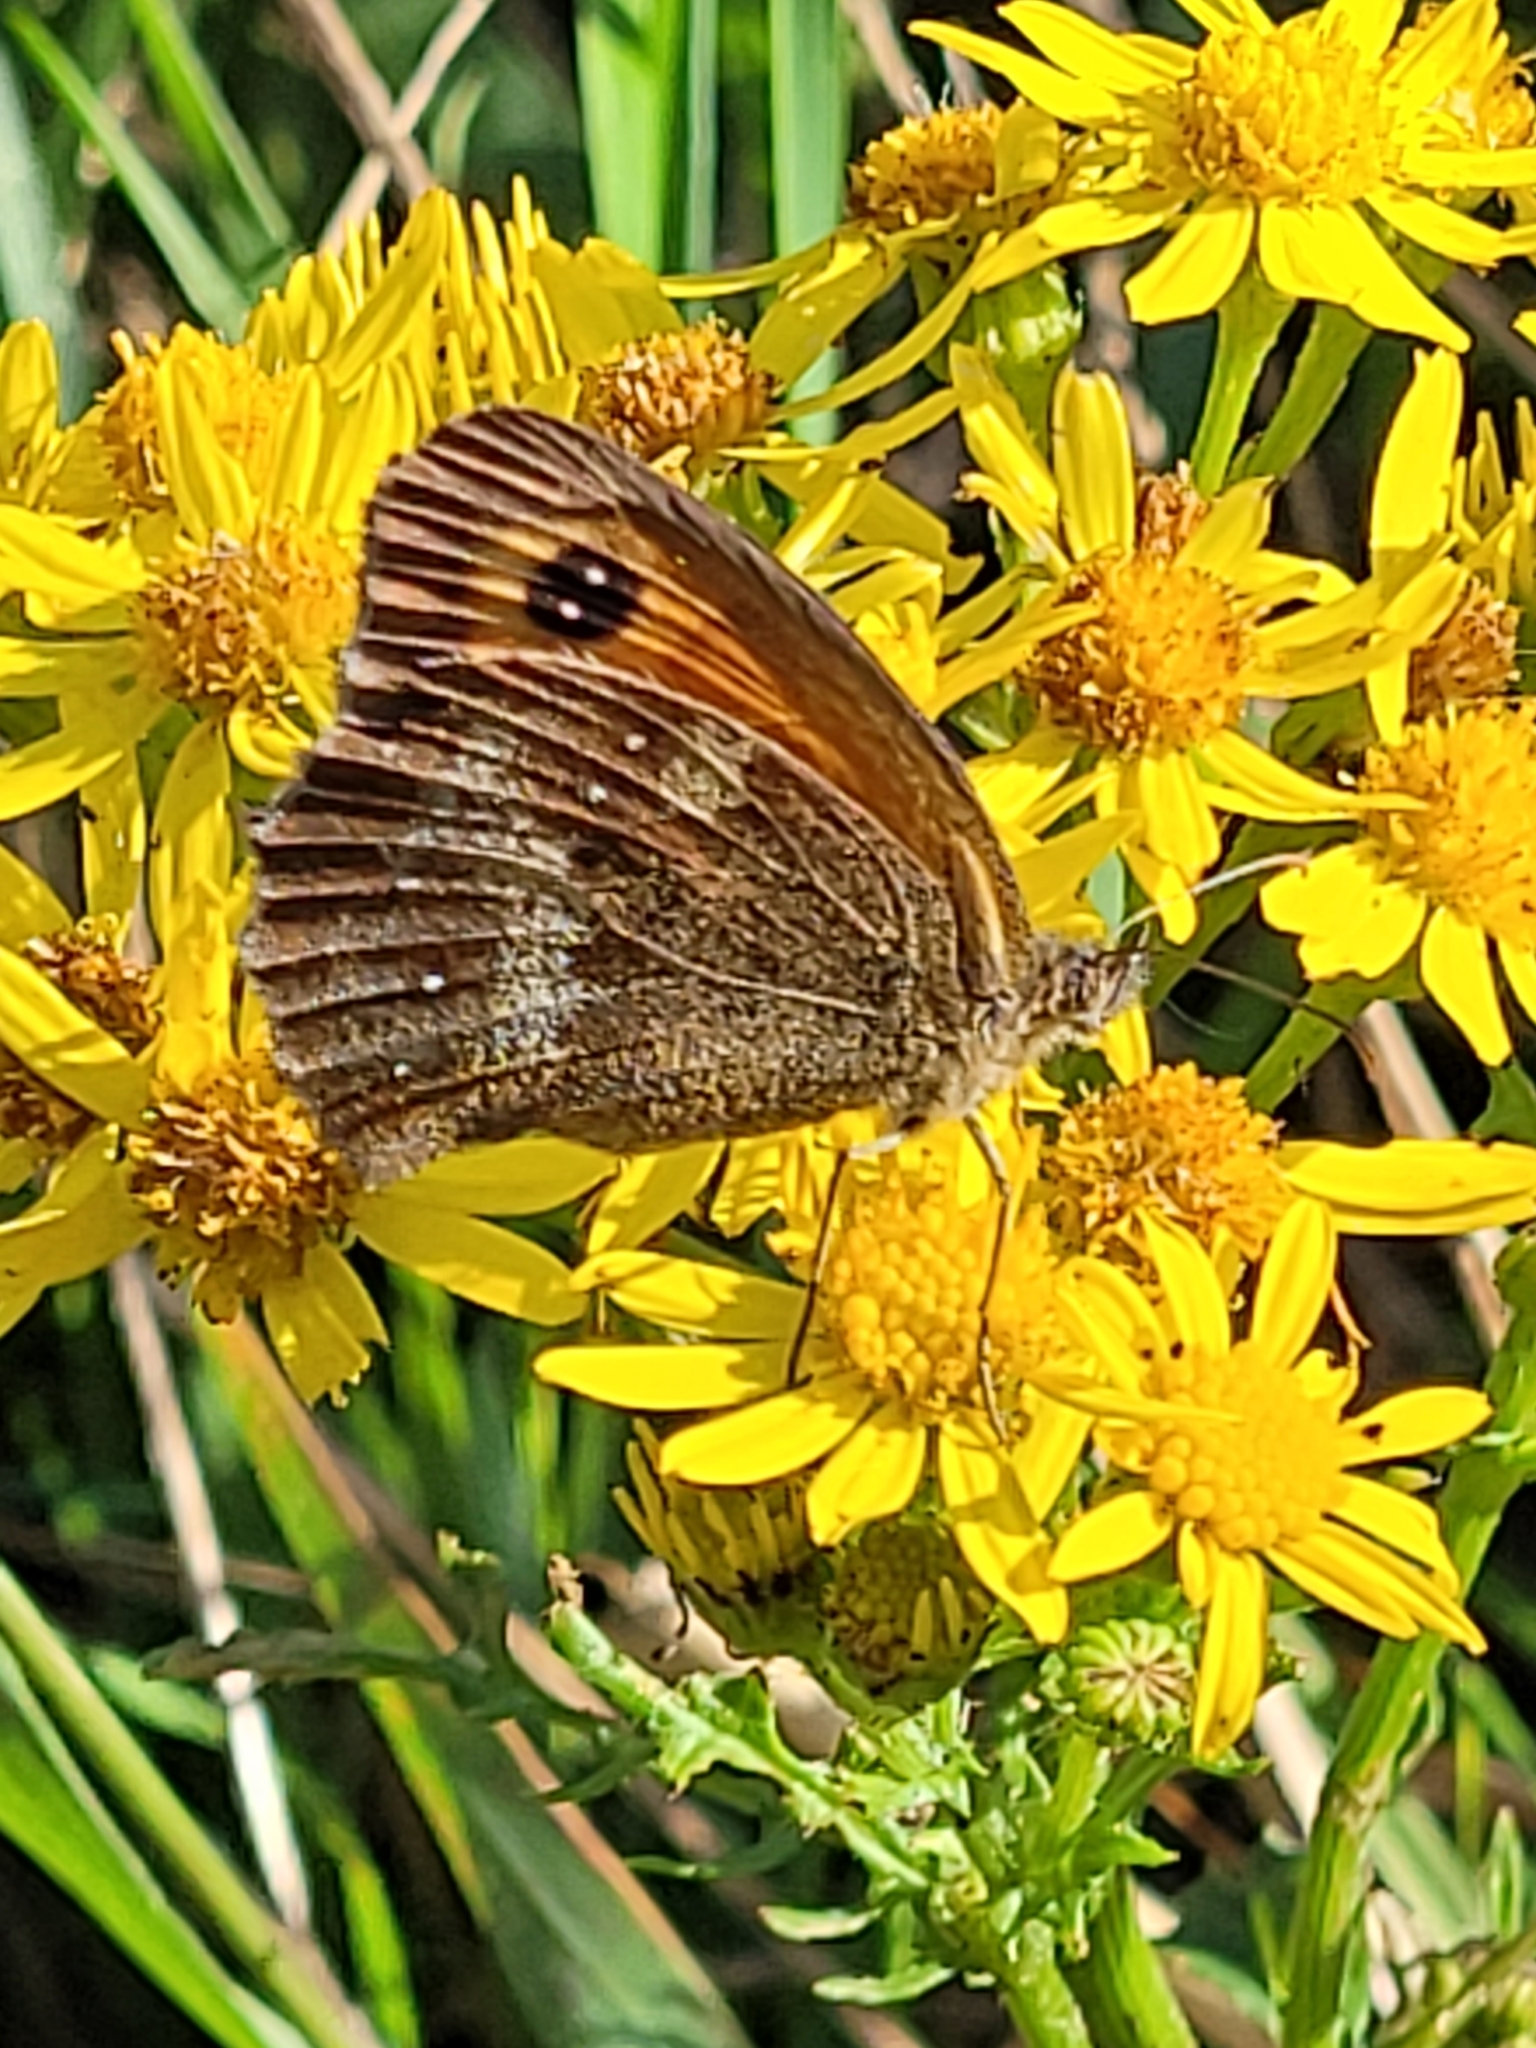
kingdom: Animalia
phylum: Arthropoda
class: Insecta
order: Lepidoptera
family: Nymphalidae
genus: Pyronia
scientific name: Pyronia tithonus
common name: Gatekeeper
